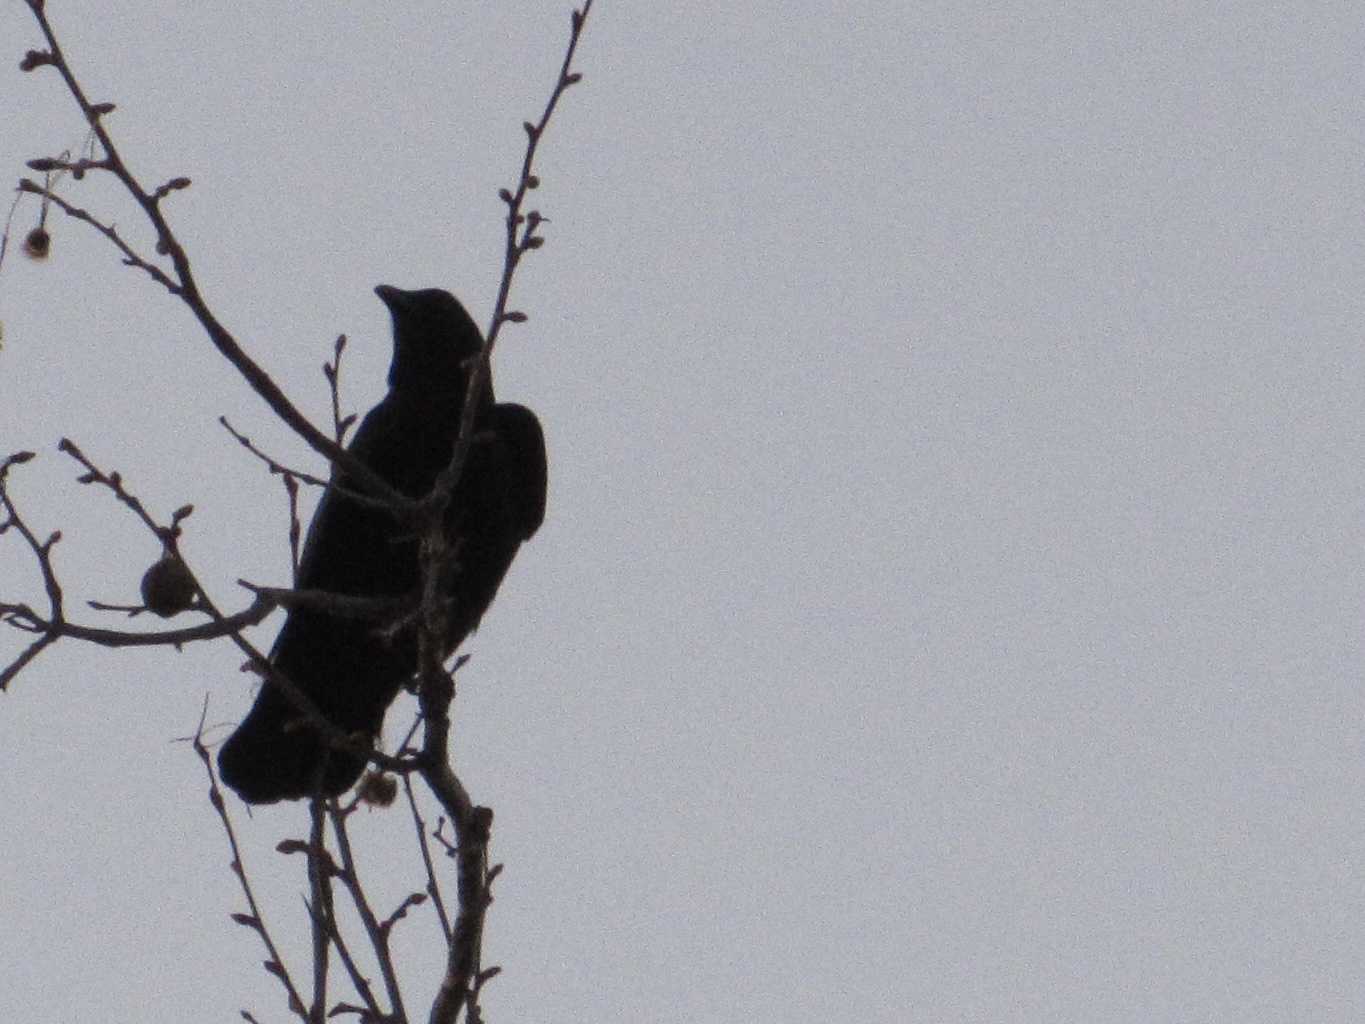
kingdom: Animalia
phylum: Chordata
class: Aves
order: Passeriformes
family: Corvidae
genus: Corvus
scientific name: Corvus brachyrhynchos
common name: American crow
